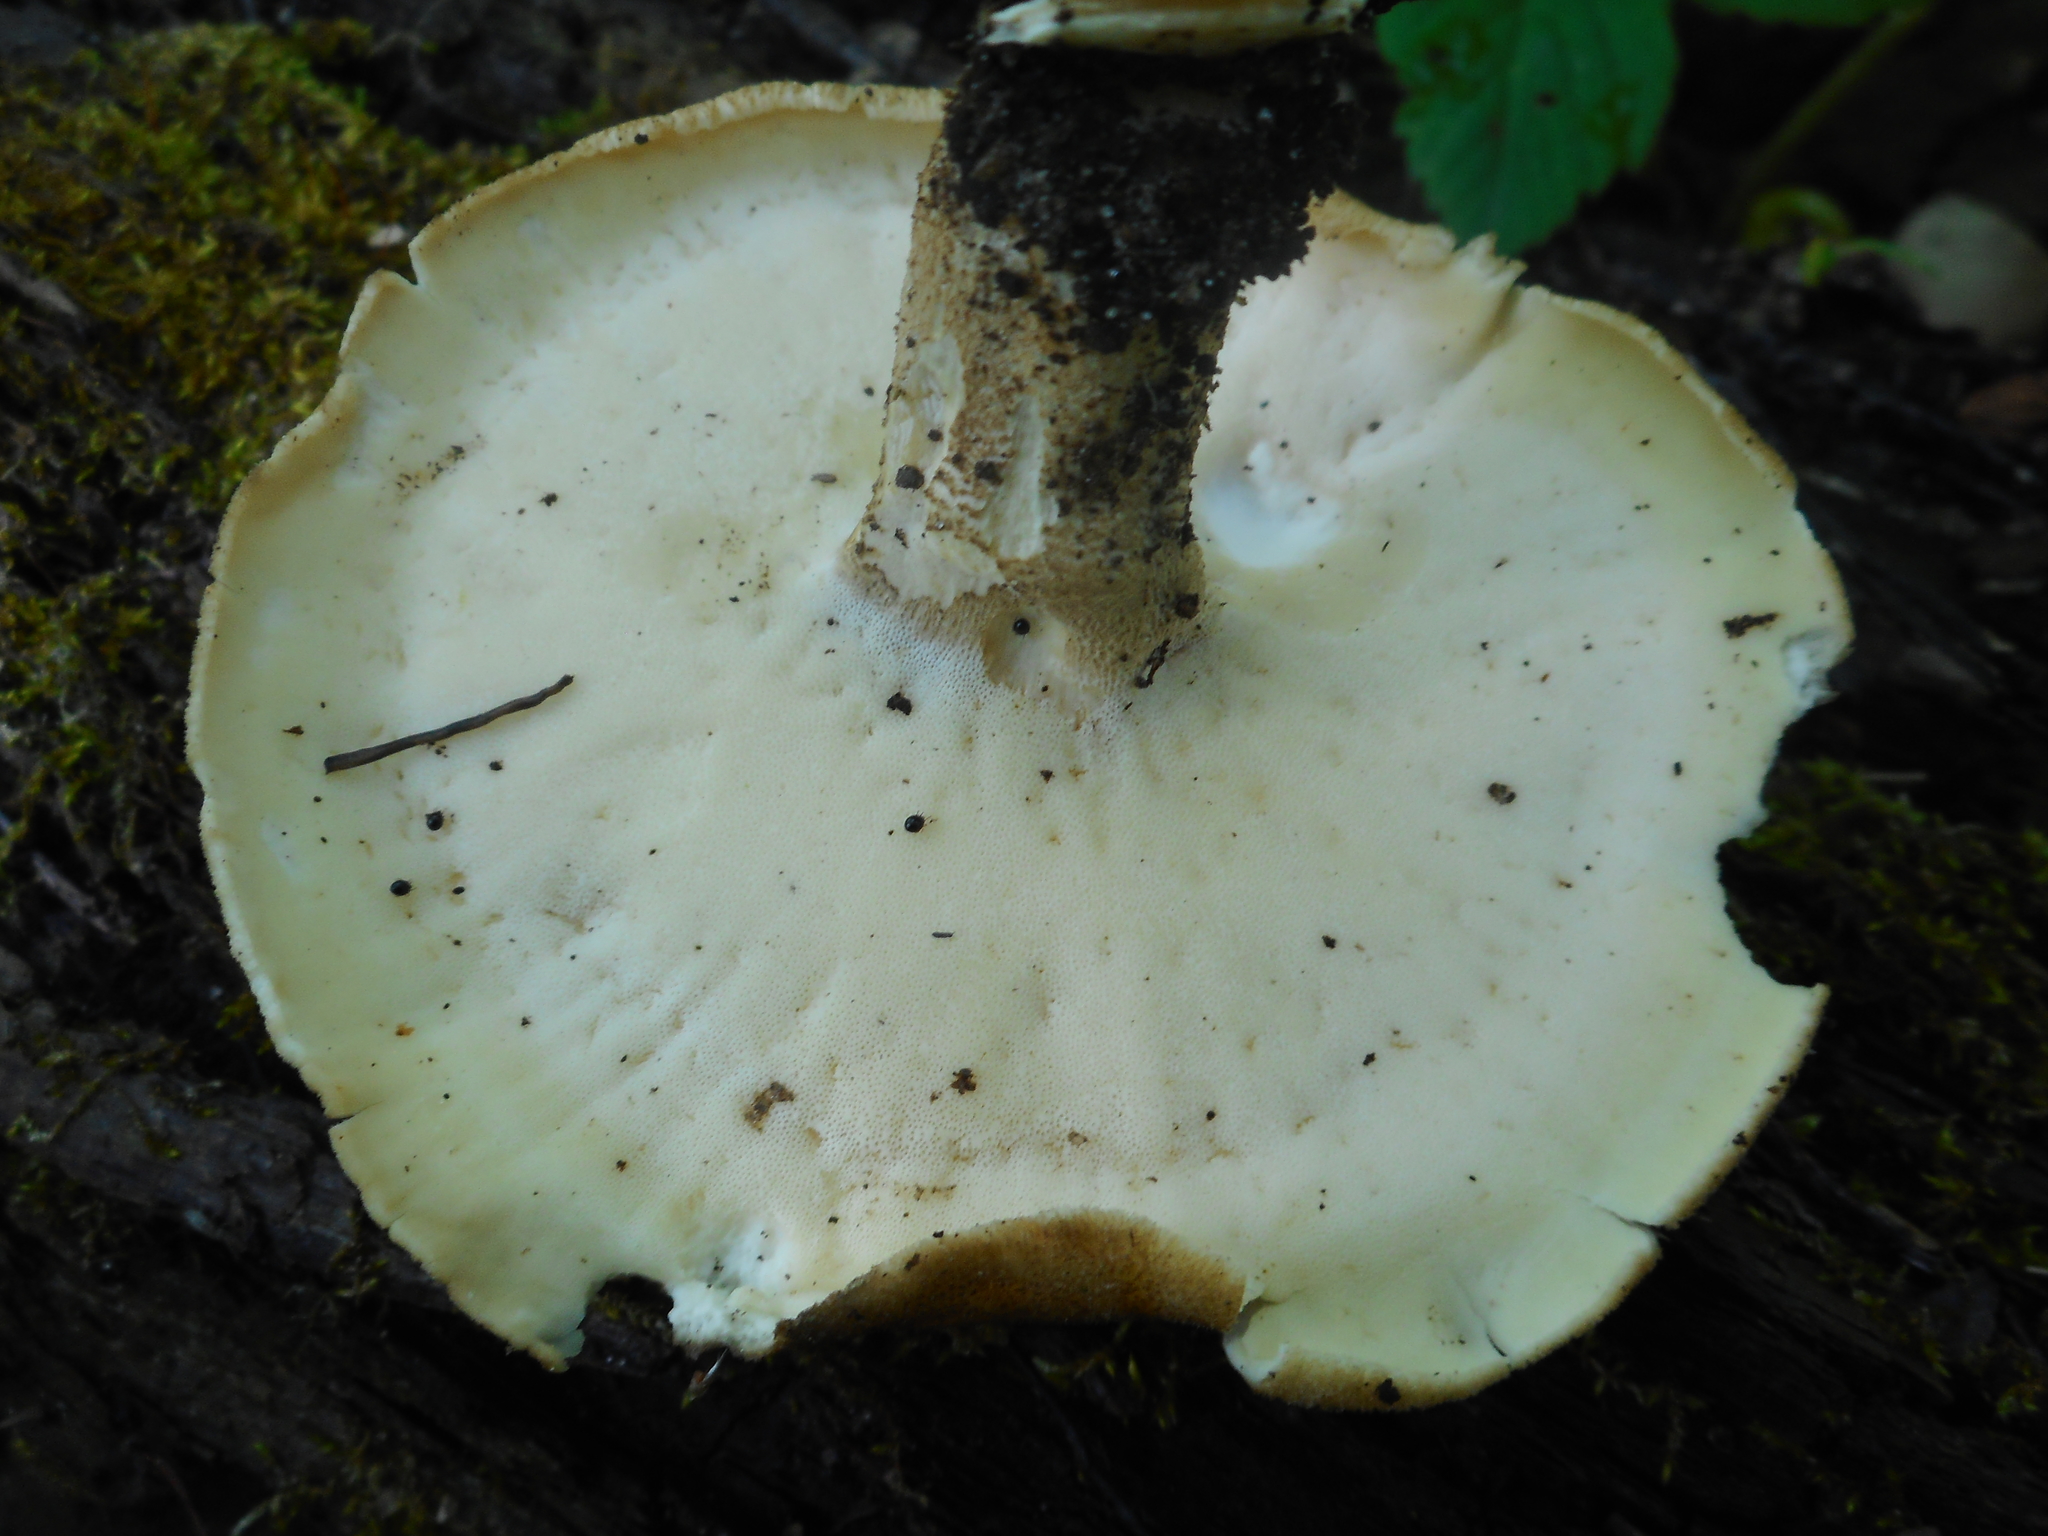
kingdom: Fungi
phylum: Basidiomycota
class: Agaricomycetes
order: Polyporales
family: Polyporaceae
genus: Lentinus
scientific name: Lentinus substrictus
